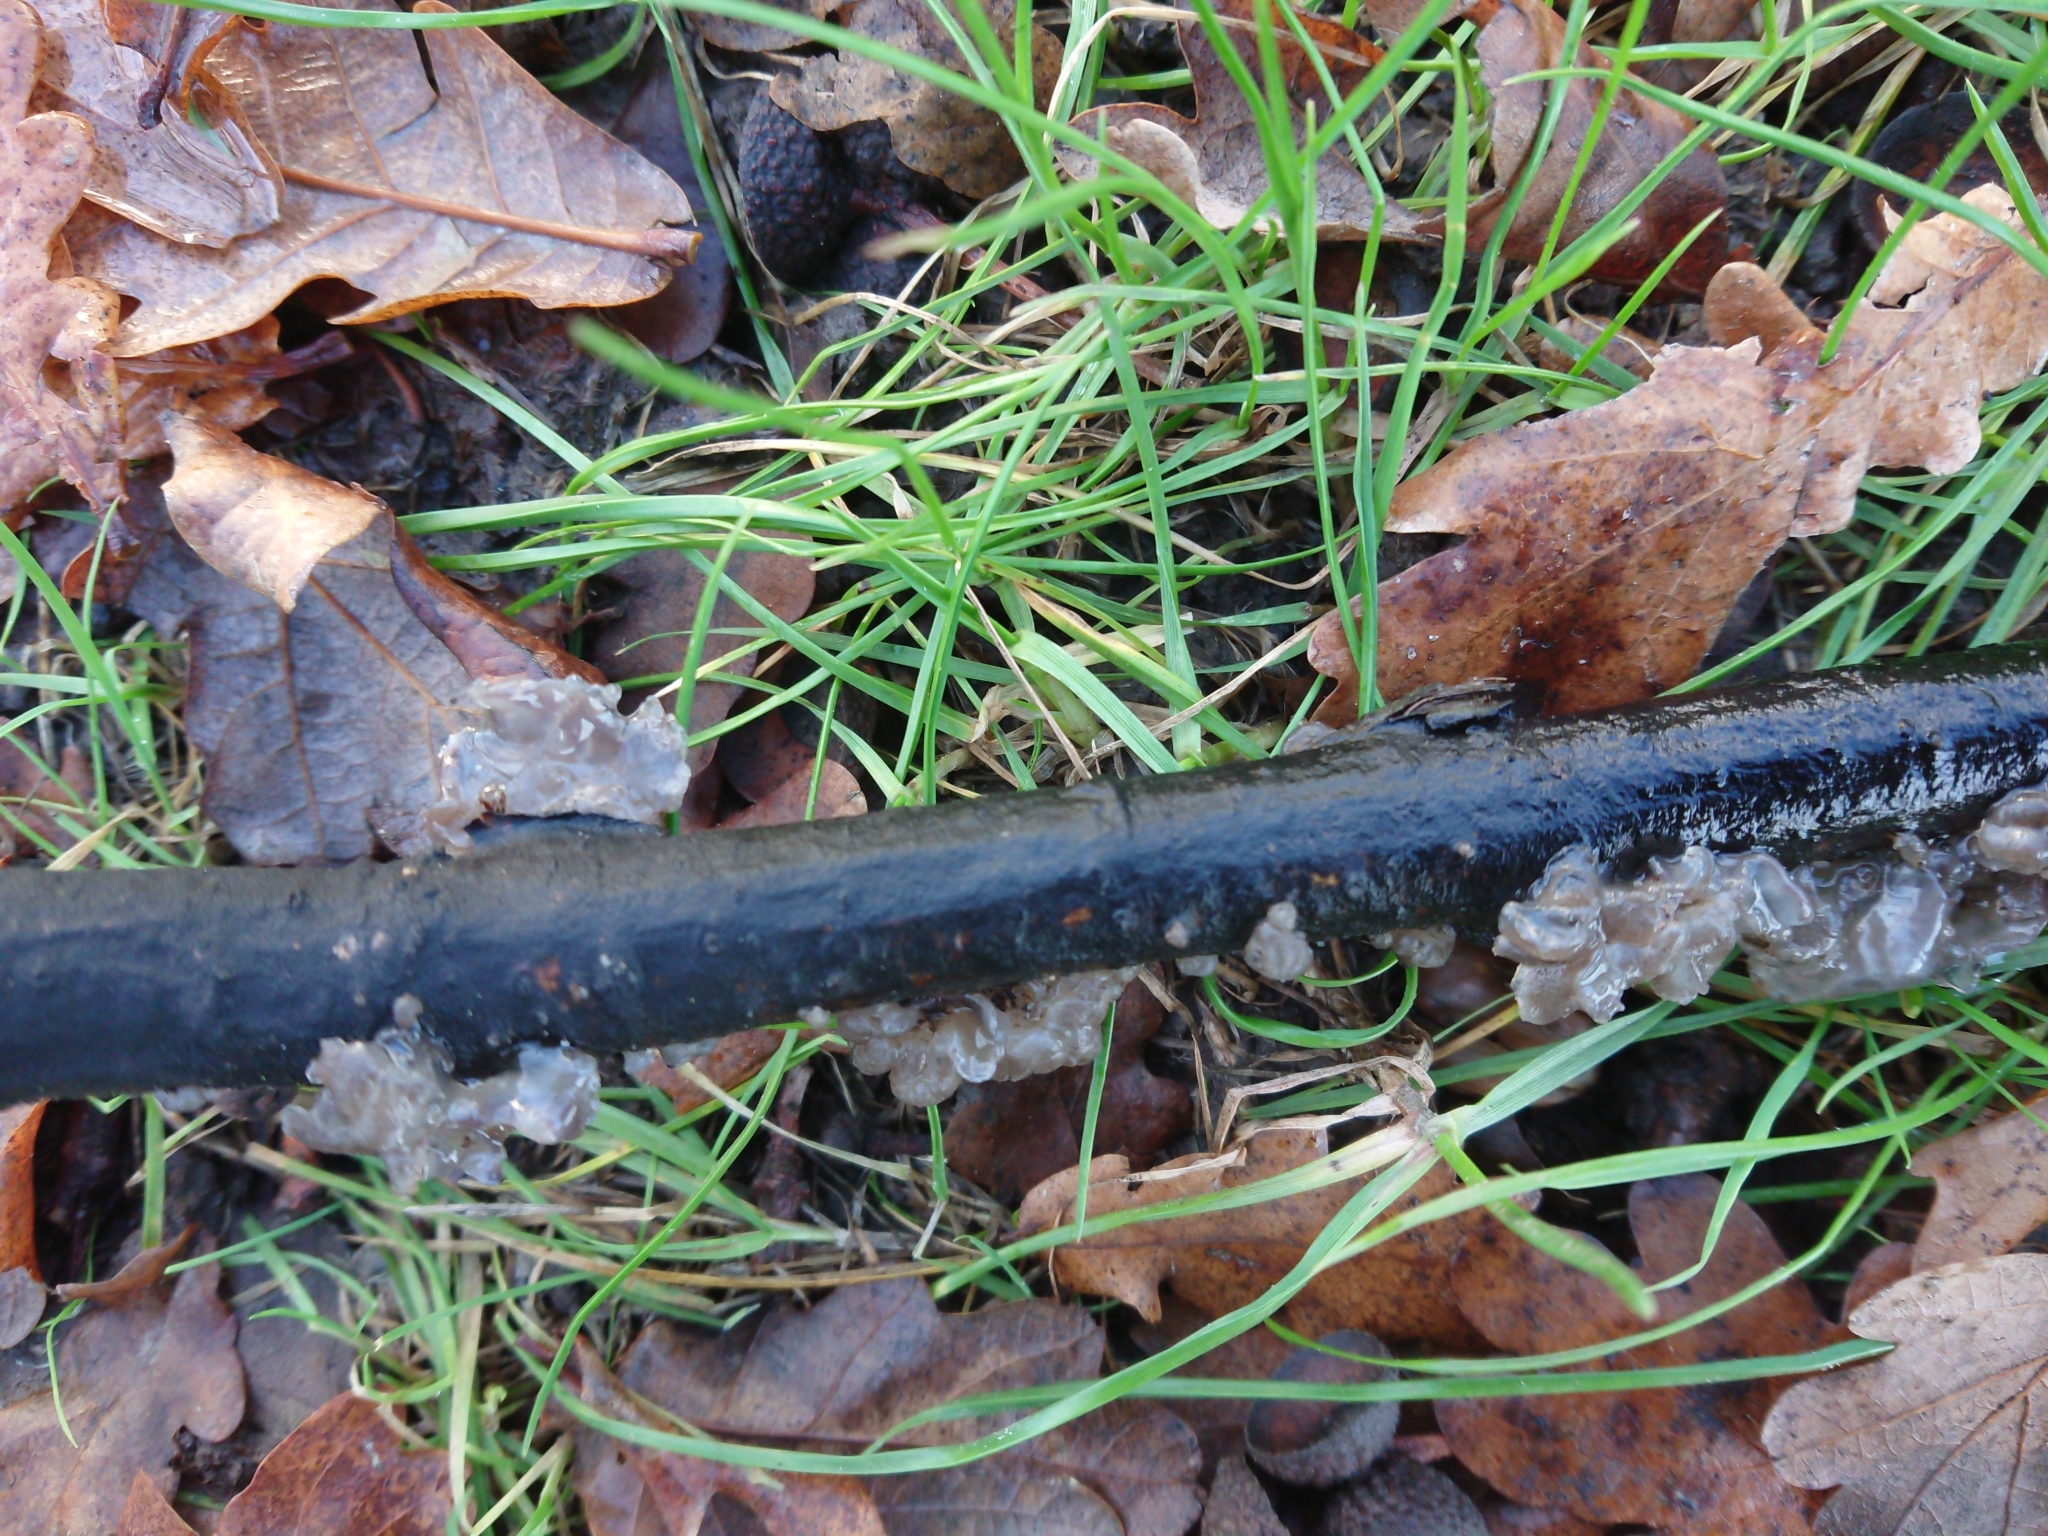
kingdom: Fungi
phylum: Basidiomycota
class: Agaricomycetes
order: Auriculariales
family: Auriculariaceae
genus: Tremellochaete
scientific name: Tremellochaete
